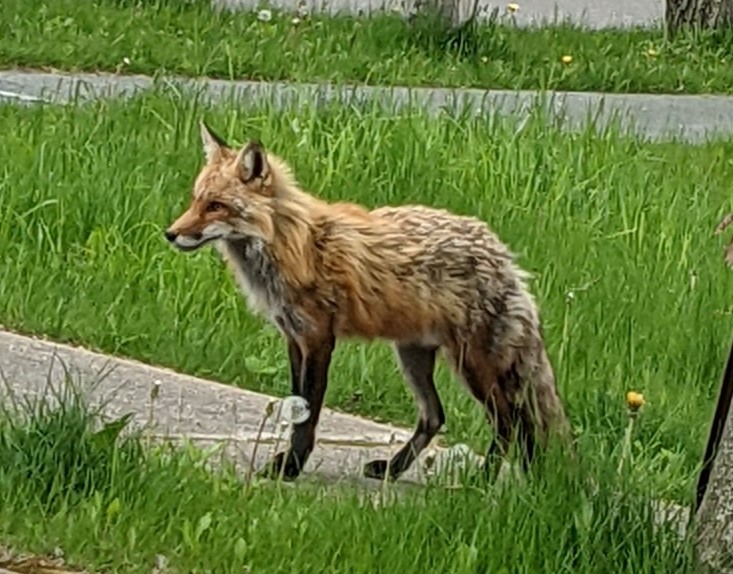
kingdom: Animalia
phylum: Chordata
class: Mammalia
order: Carnivora
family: Canidae
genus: Vulpes
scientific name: Vulpes vulpes
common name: Red fox
